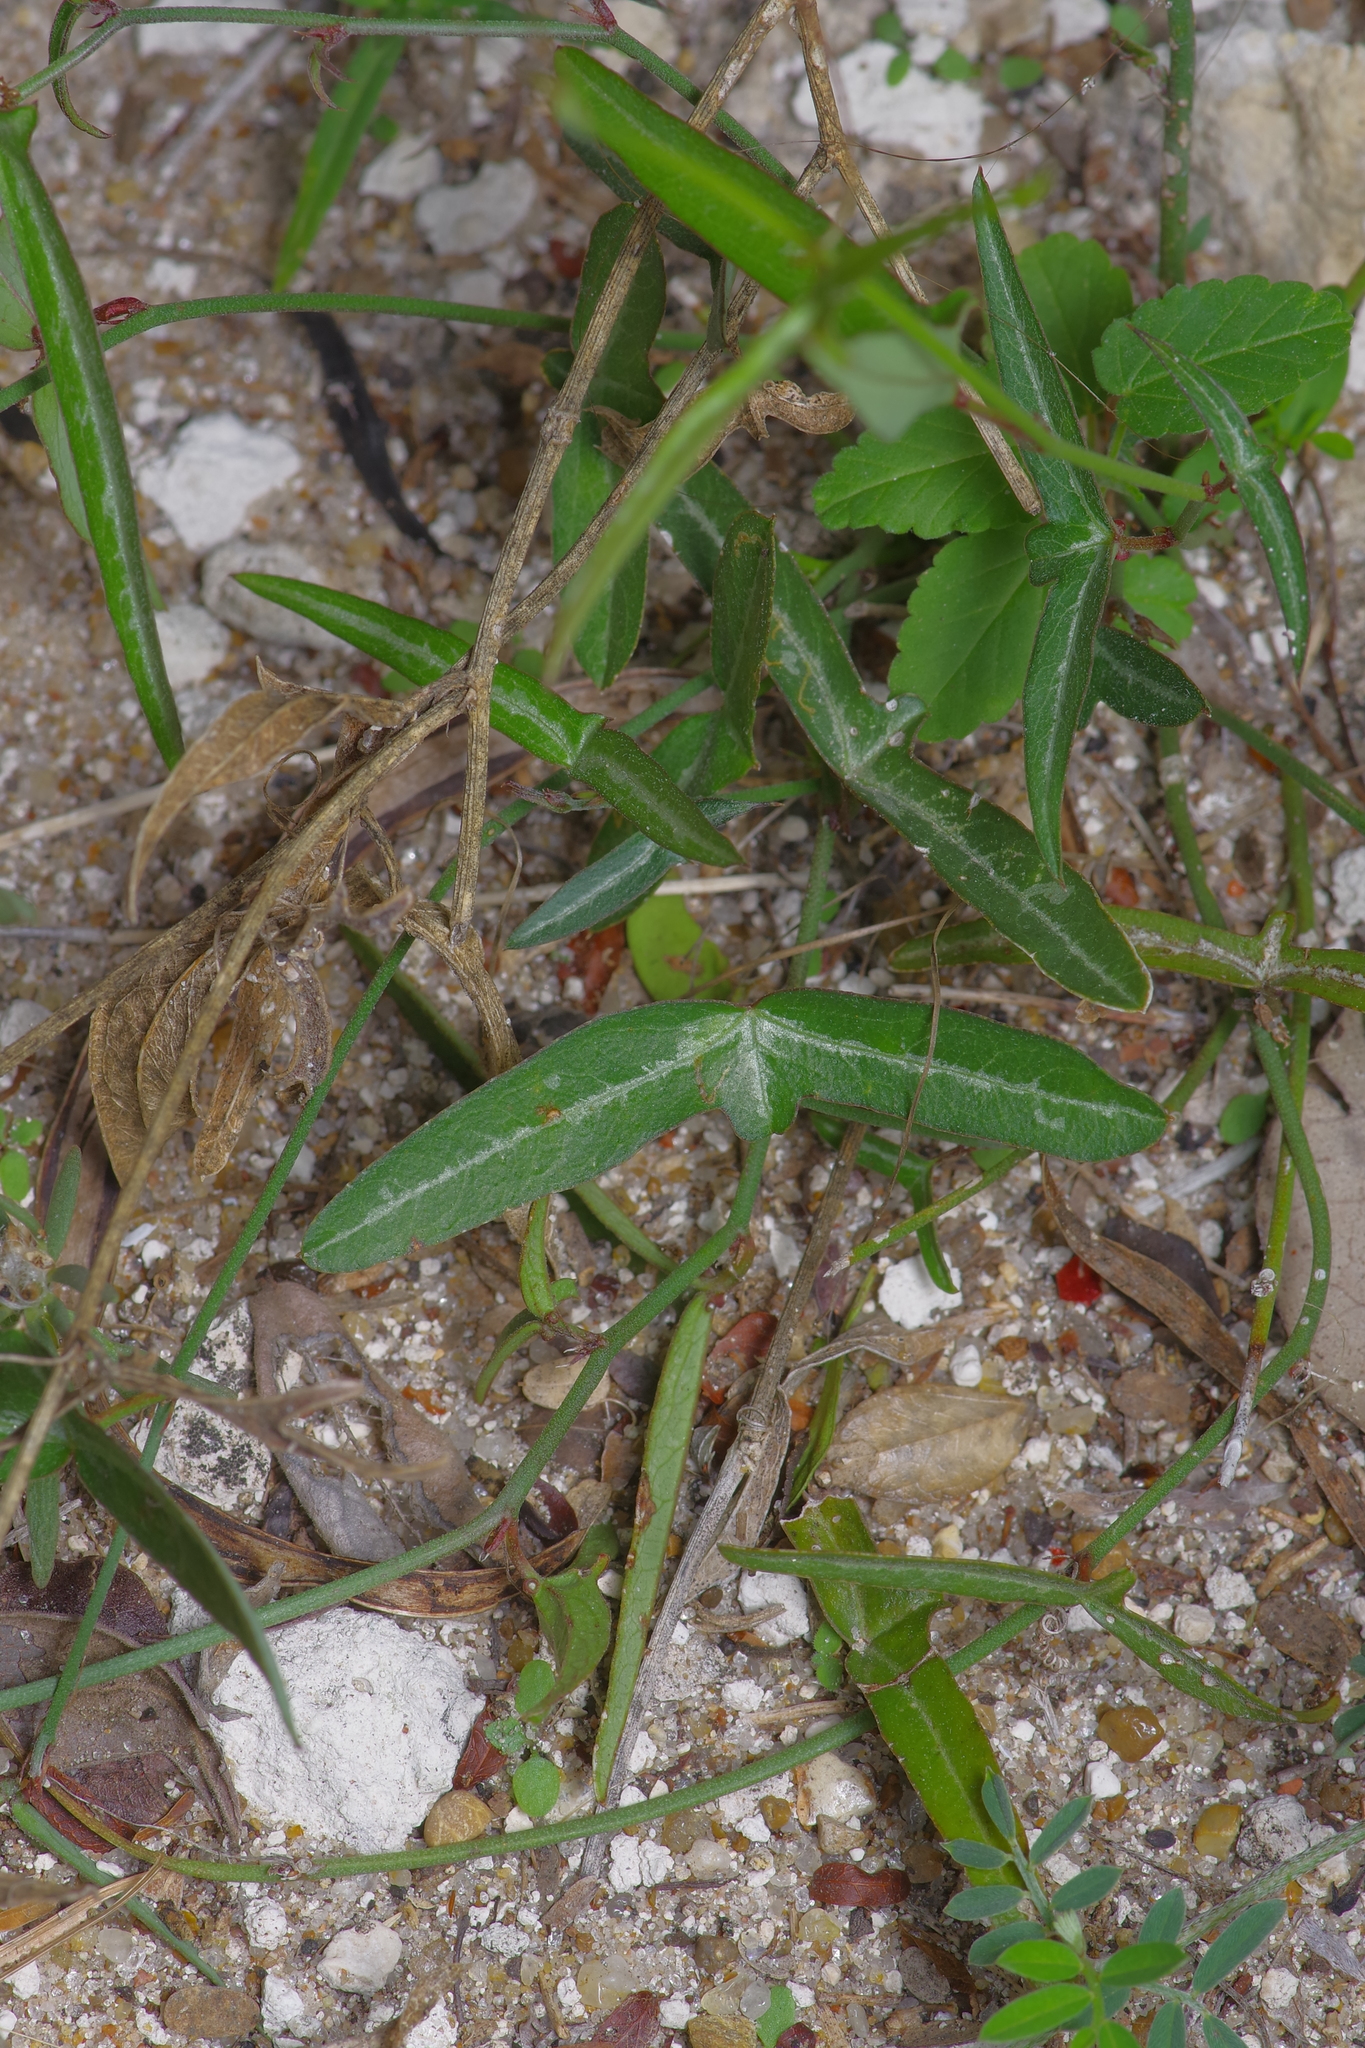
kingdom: Plantae
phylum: Tracheophyta
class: Magnoliopsida
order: Malpighiales
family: Passifloraceae
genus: Passiflora
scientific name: Passiflora tenuiloba
